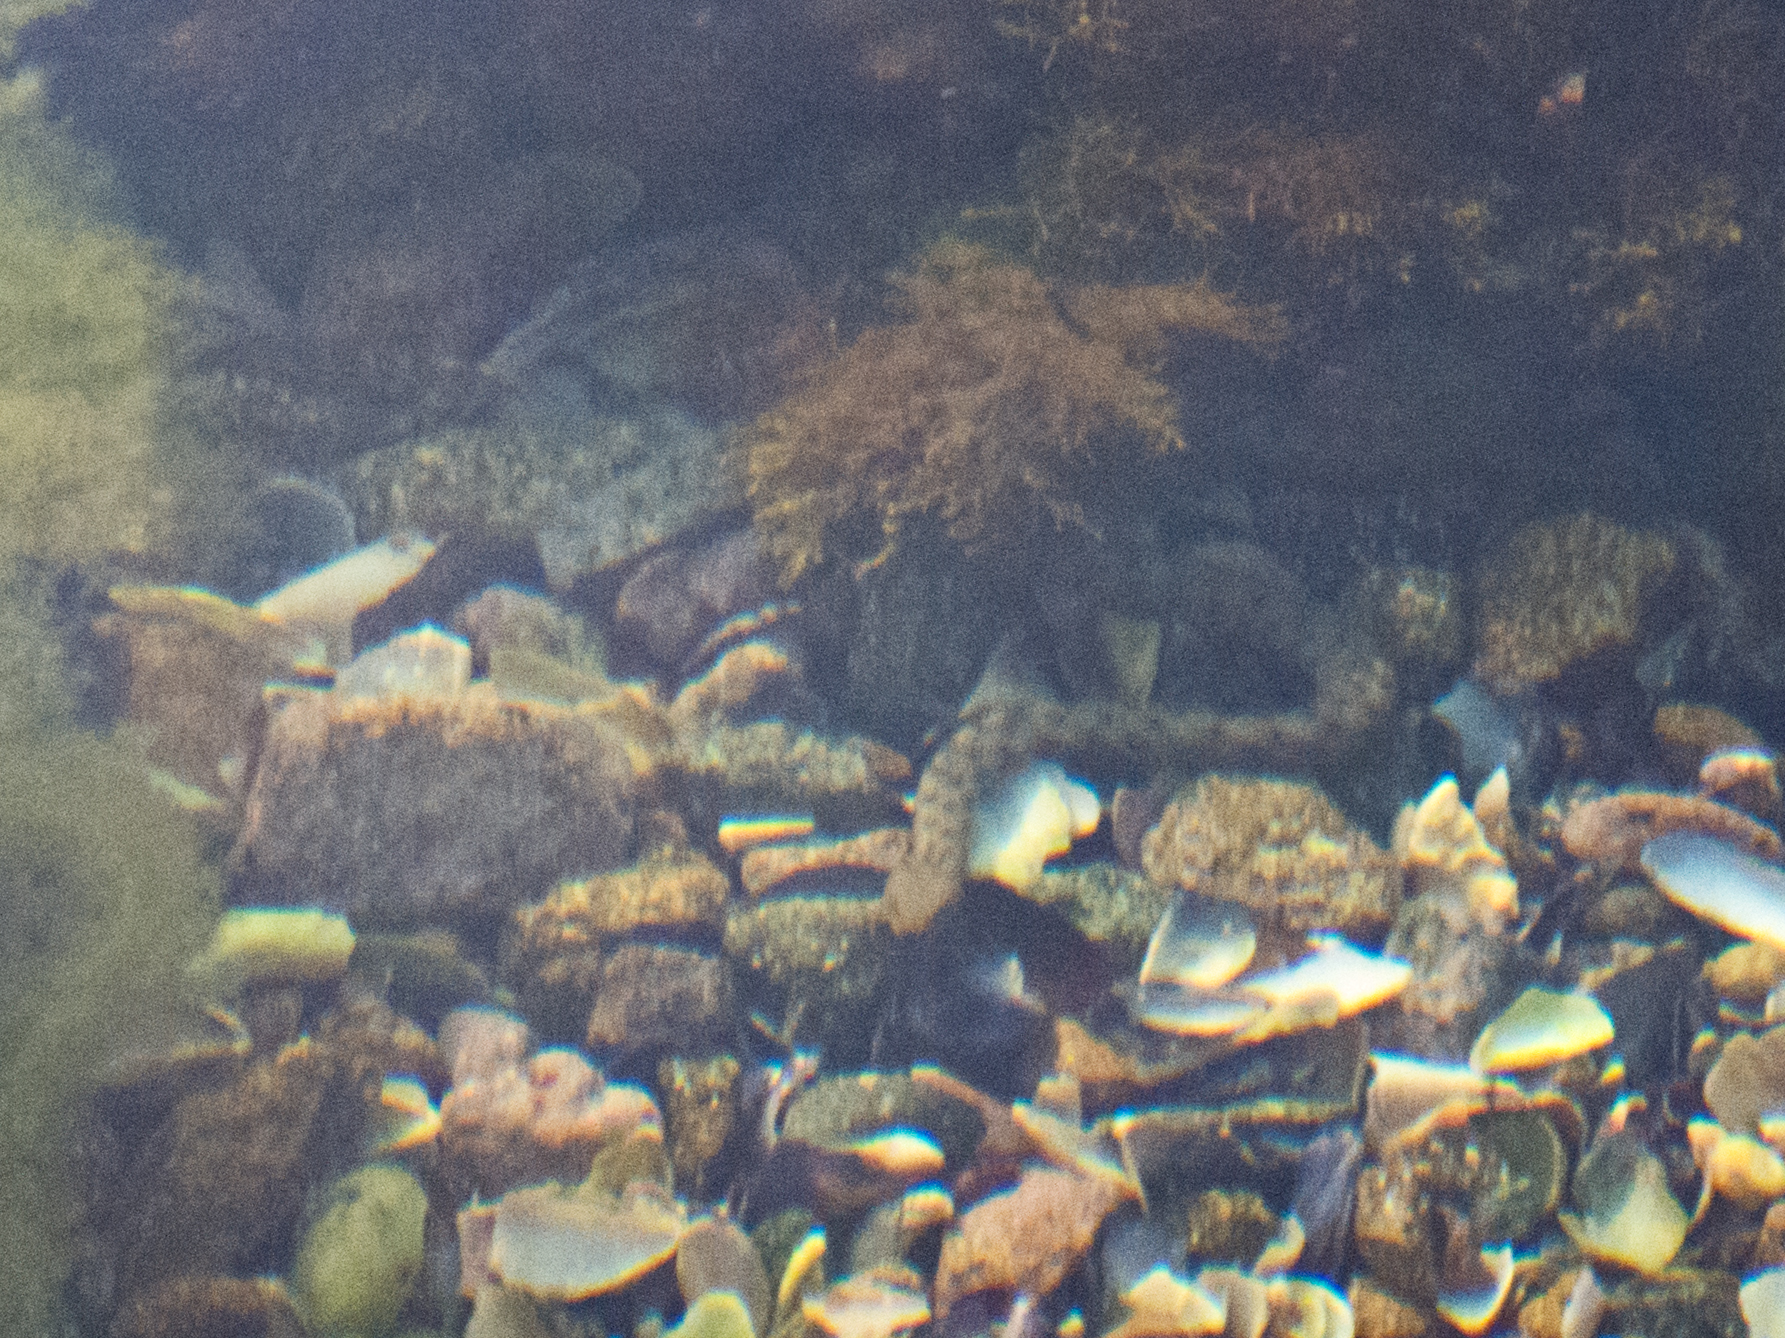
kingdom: Animalia
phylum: Chordata
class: Squamata
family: Colubridae
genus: Natrix
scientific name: Natrix tessellata
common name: Dice snake
